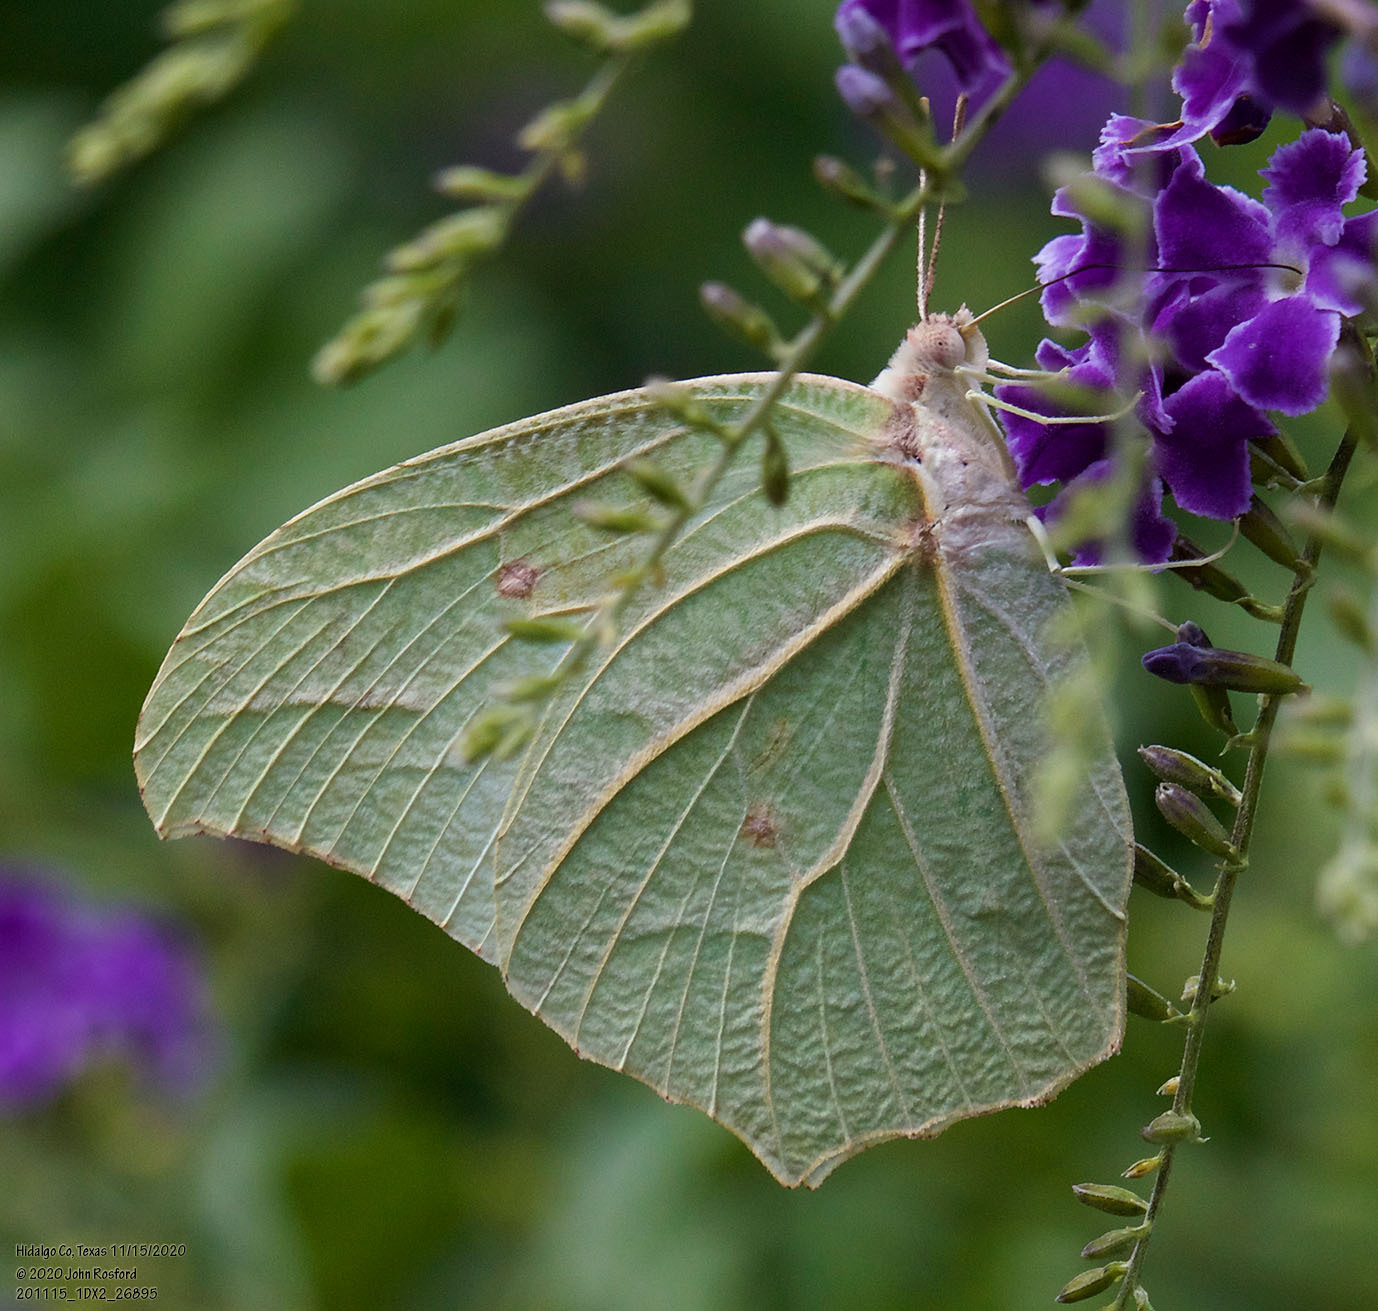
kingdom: Animalia
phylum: Arthropoda
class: Insecta
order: Lepidoptera
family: Pieridae
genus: Anteos
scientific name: Anteos clorinde
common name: White angled sulphur
